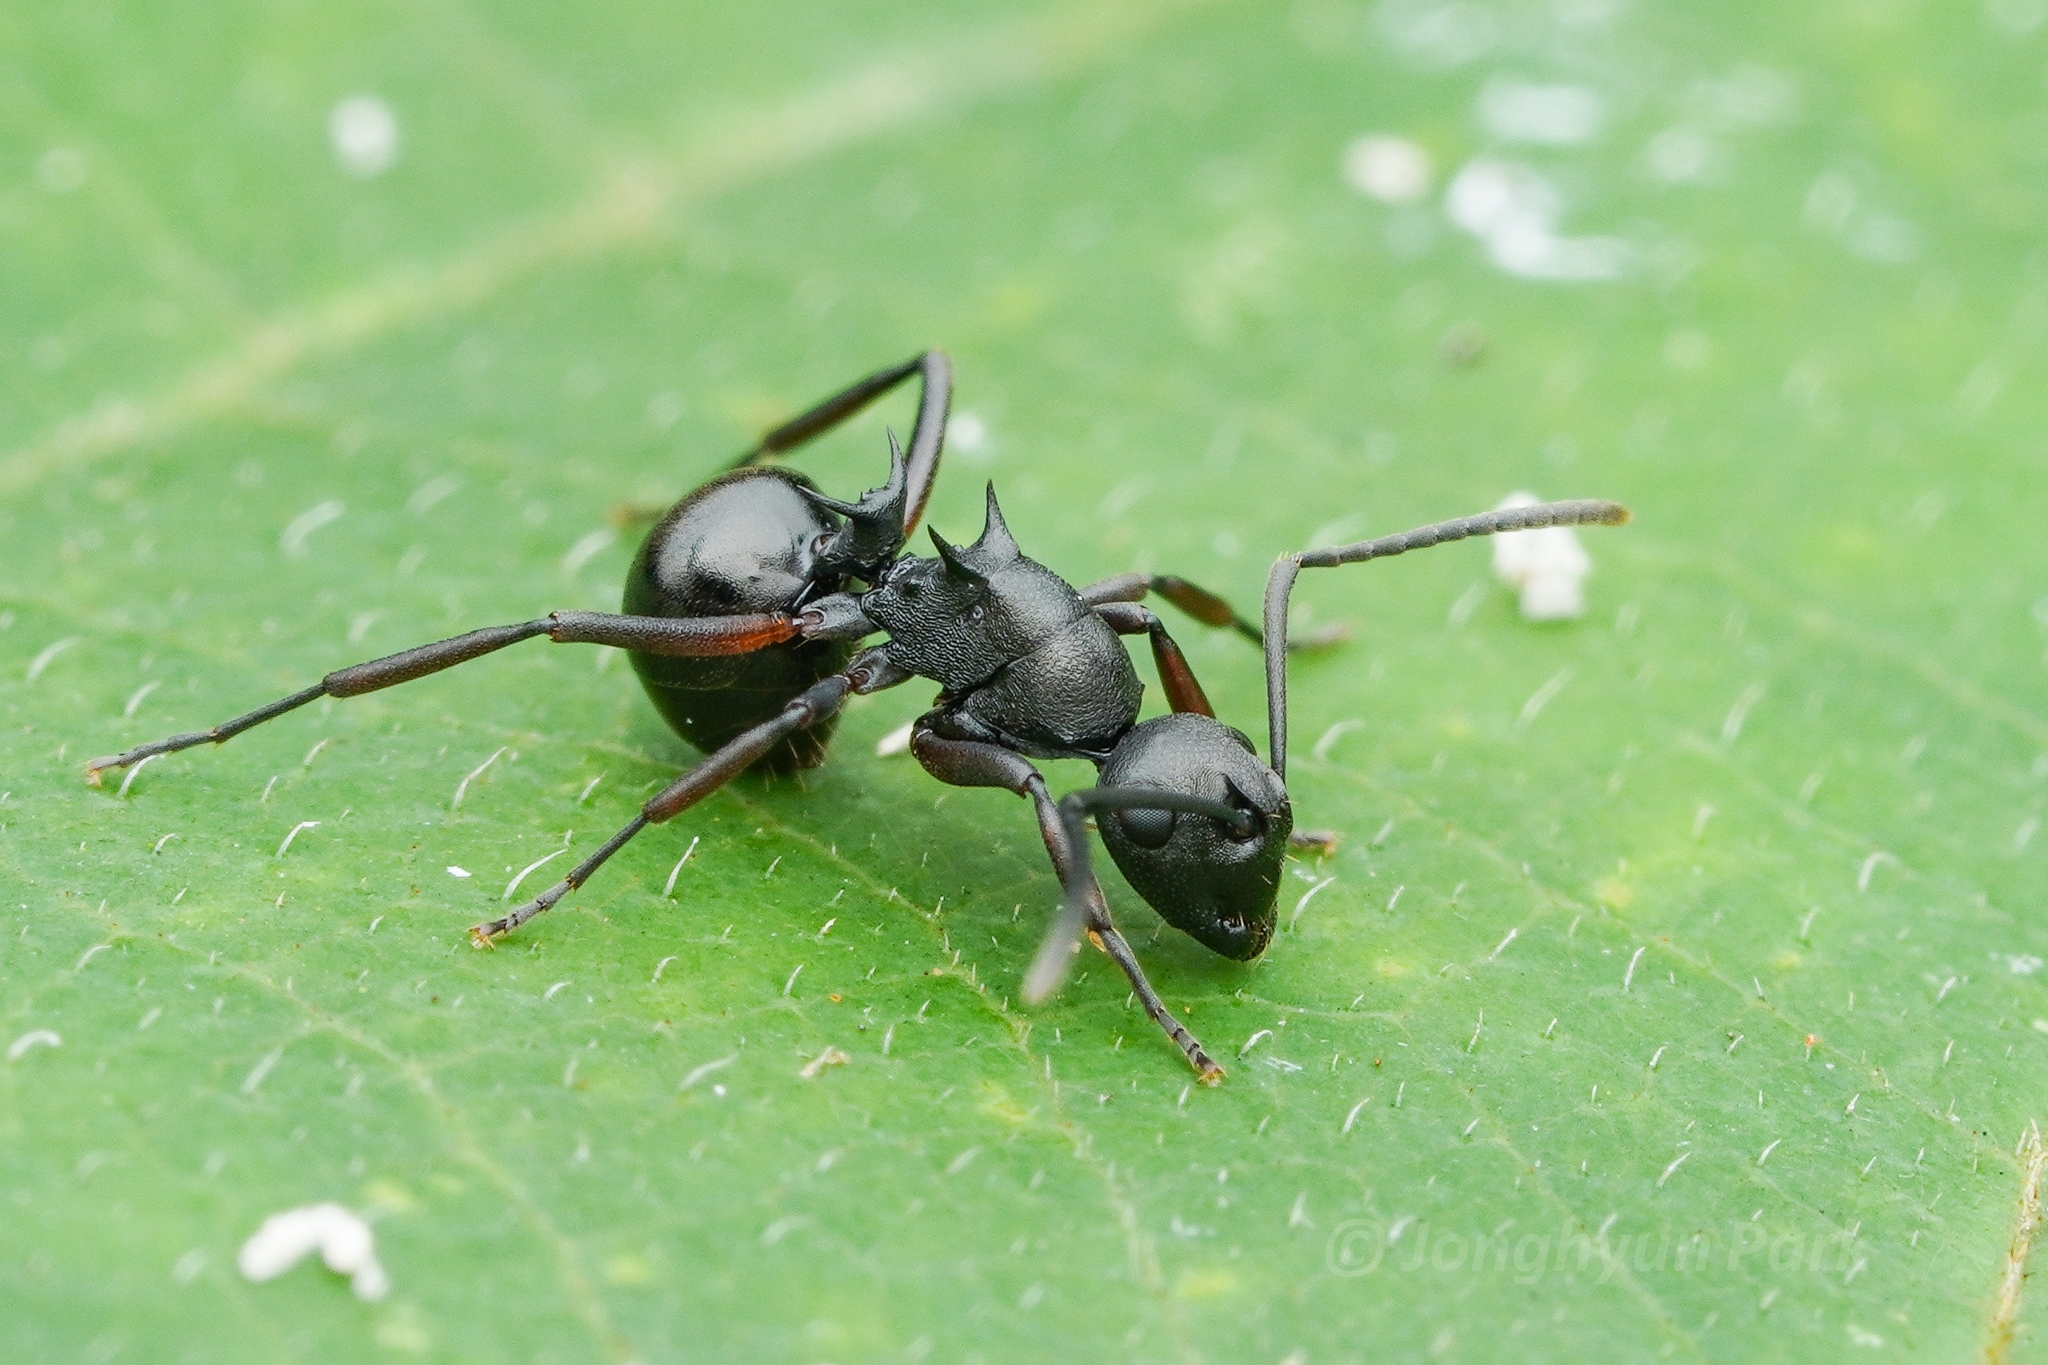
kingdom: Animalia
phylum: Arthropoda
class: Insecta
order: Hymenoptera
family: Formicidae
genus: Polyrhachis
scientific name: Polyrhachis moesta
